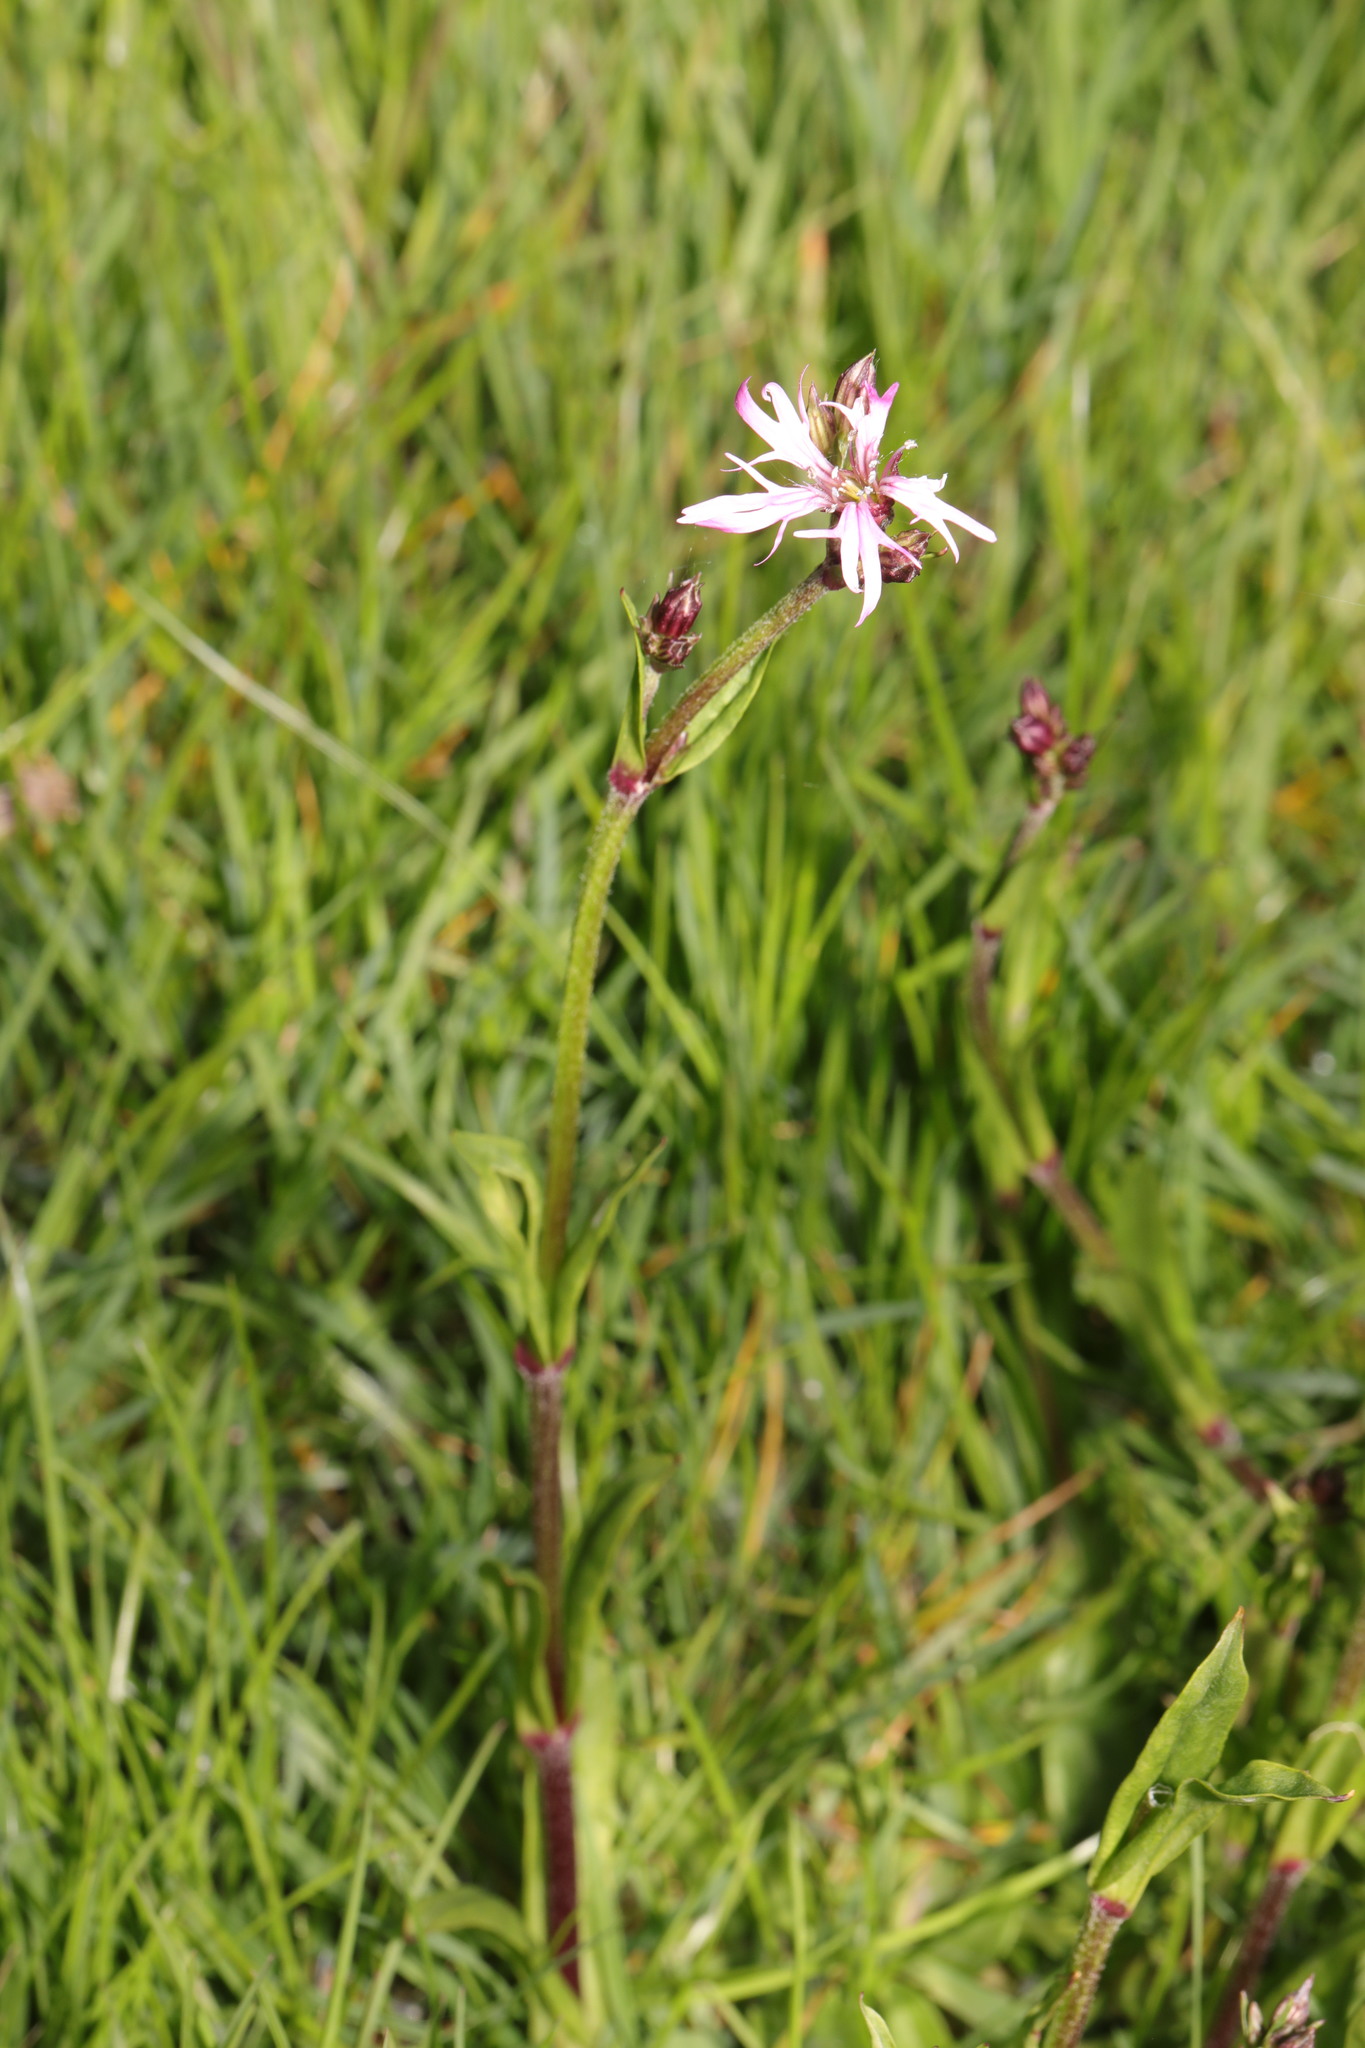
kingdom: Plantae
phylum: Tracheophyta
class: Magnoliopsida
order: Caryophyllales
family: Caryophyllaceae
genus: Silene
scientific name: Silene flos-cuculi
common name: Ragged-robin
